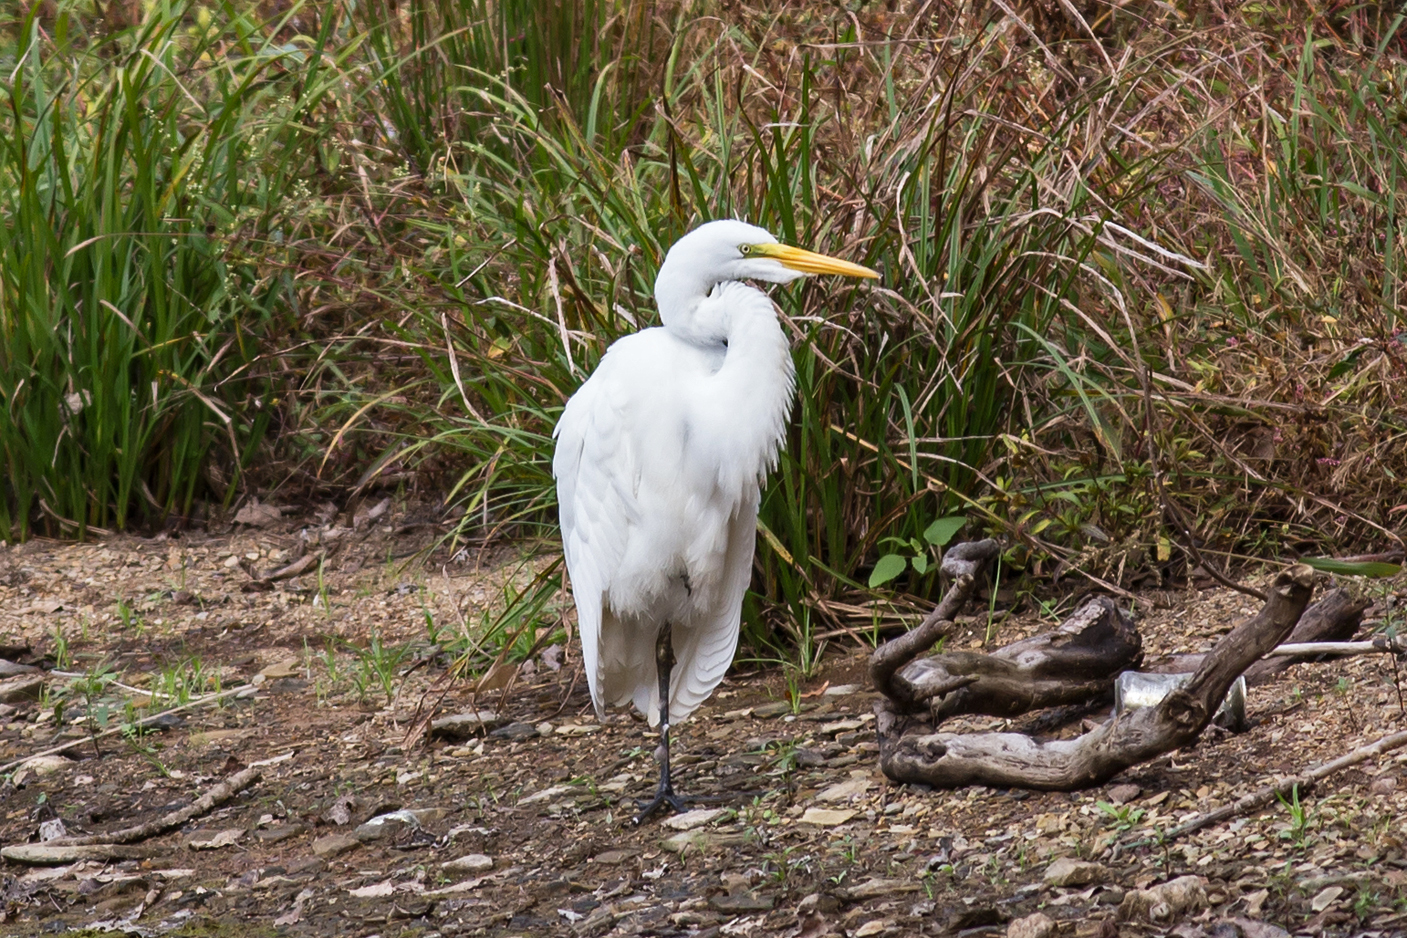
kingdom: Animalia
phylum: Chordata
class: Aves
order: Pelecaniformes
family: Ardeidae
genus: Ardea
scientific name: Ardea alba
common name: Great egret
